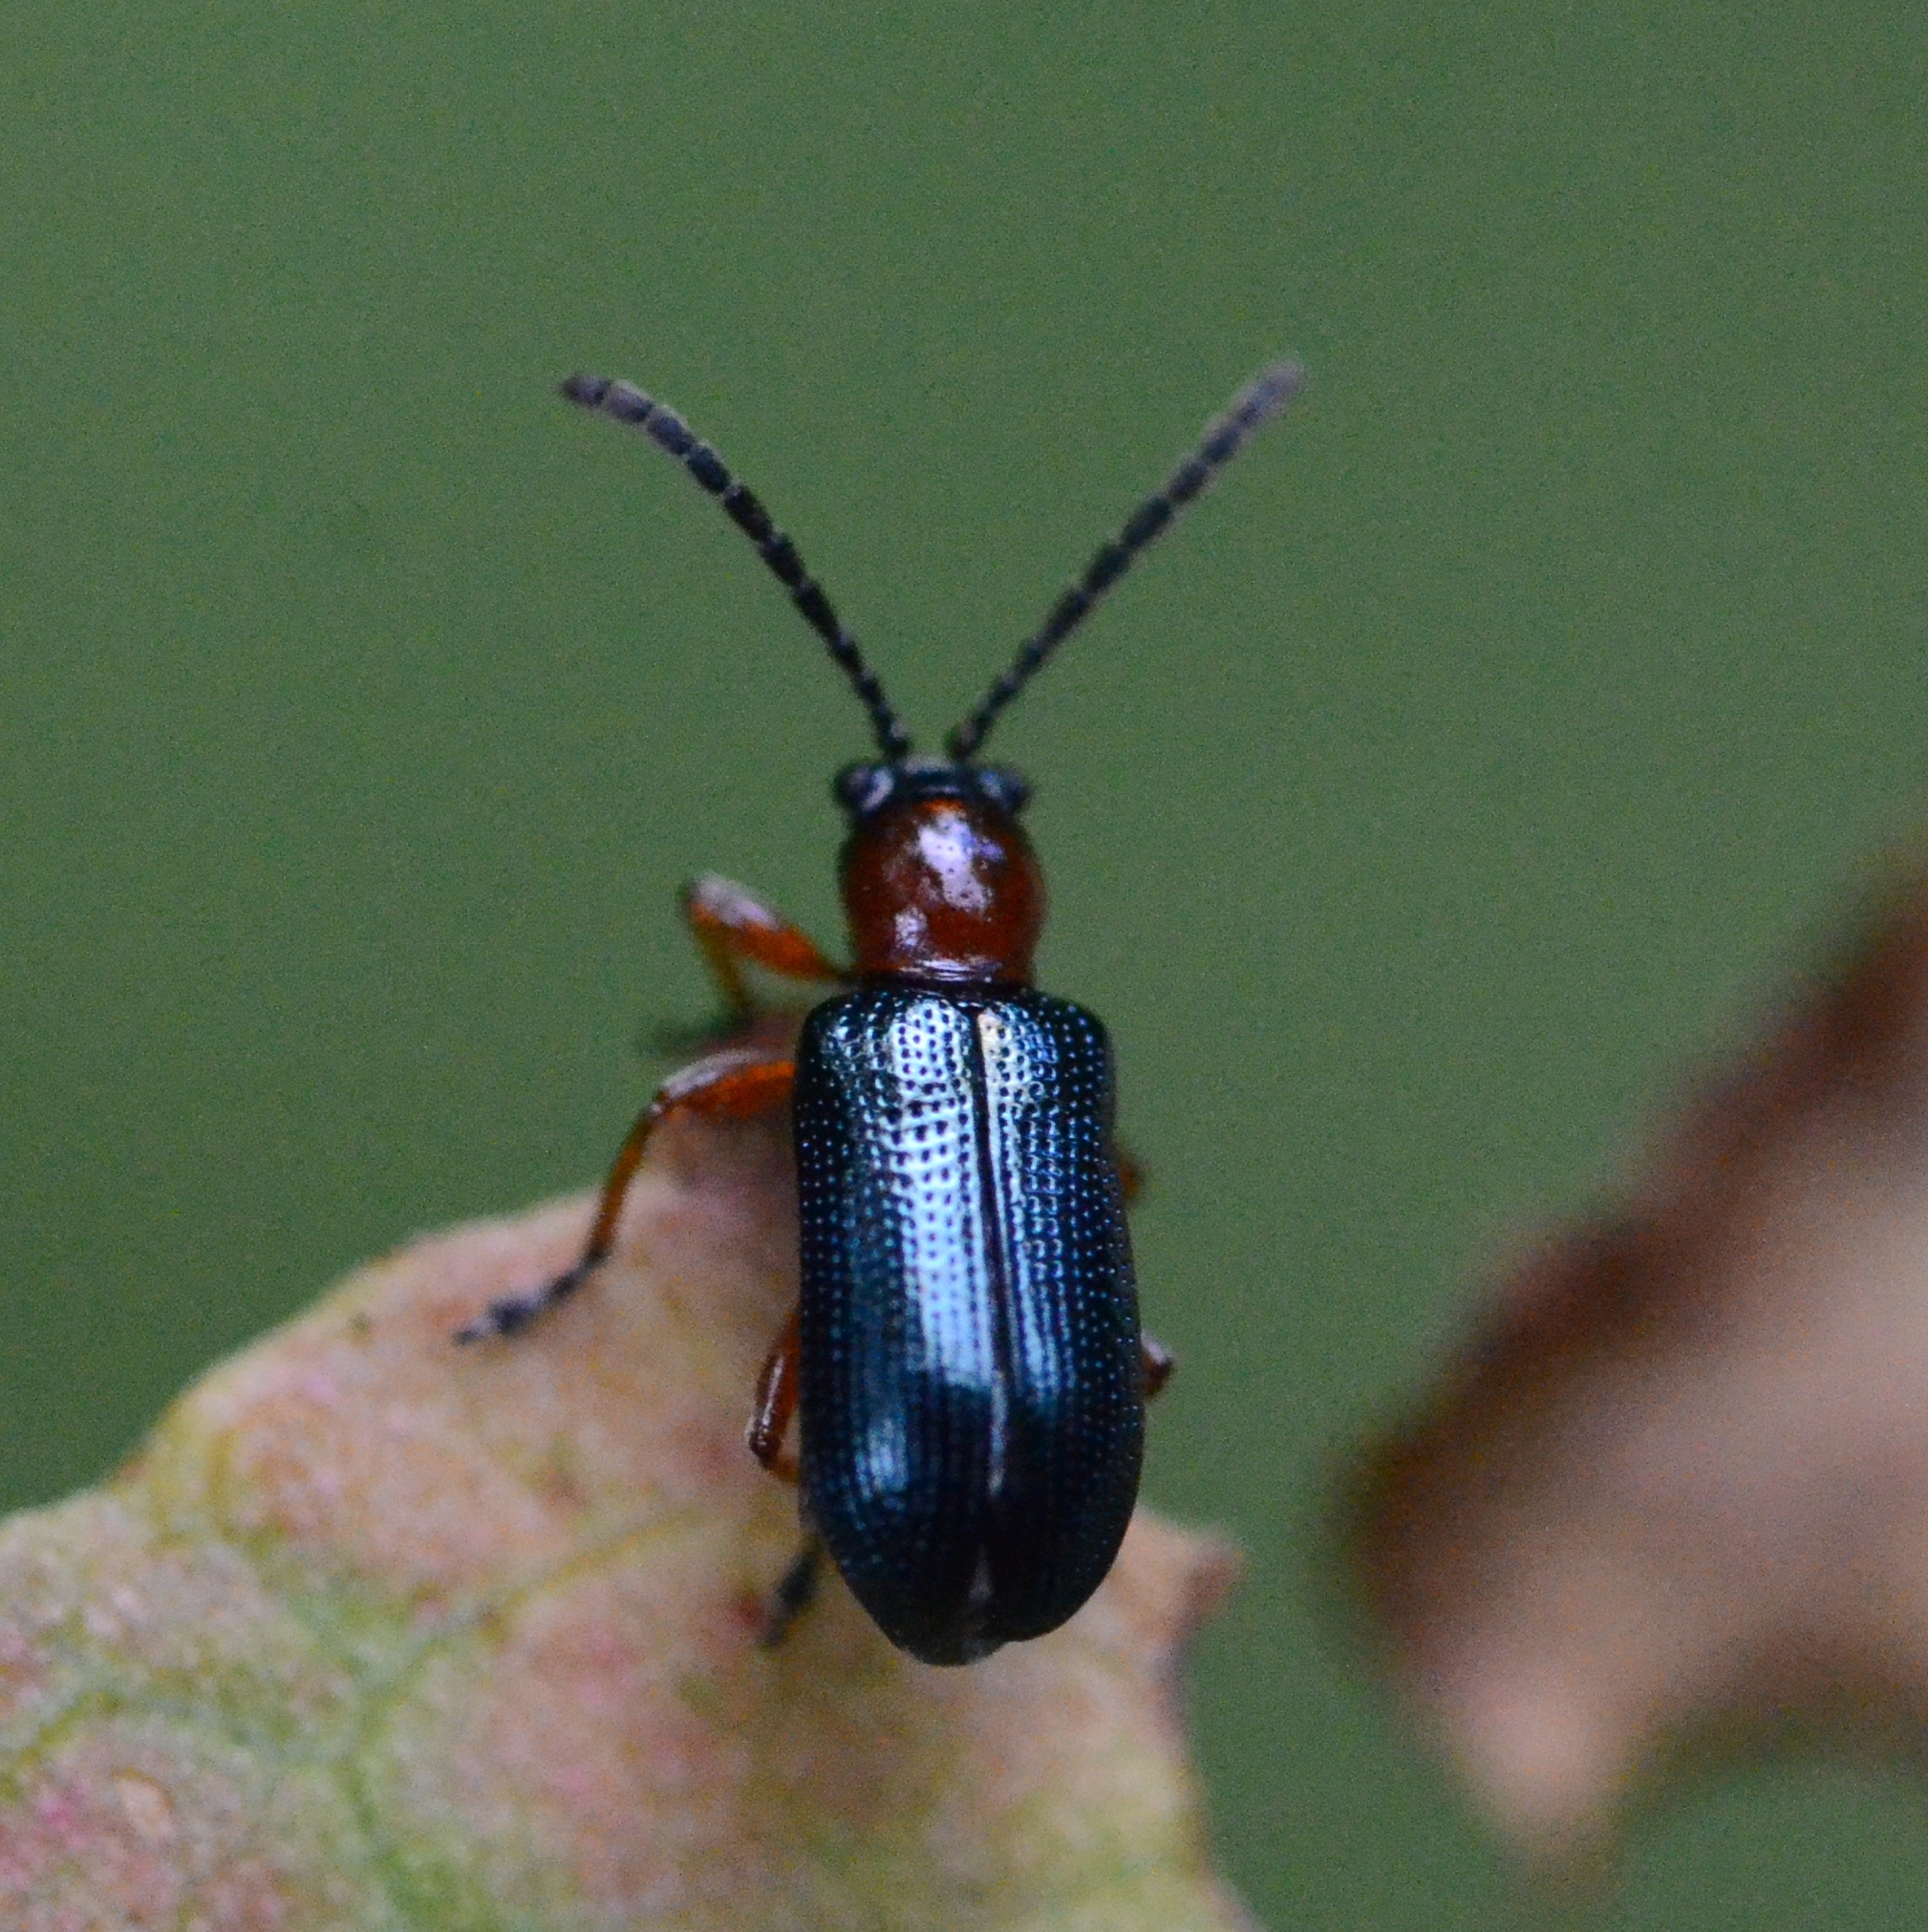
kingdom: Animalia
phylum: Arthropoda
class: Insecta
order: Coleoptera
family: Chrysomelidae
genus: Oulema
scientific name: Oulema
